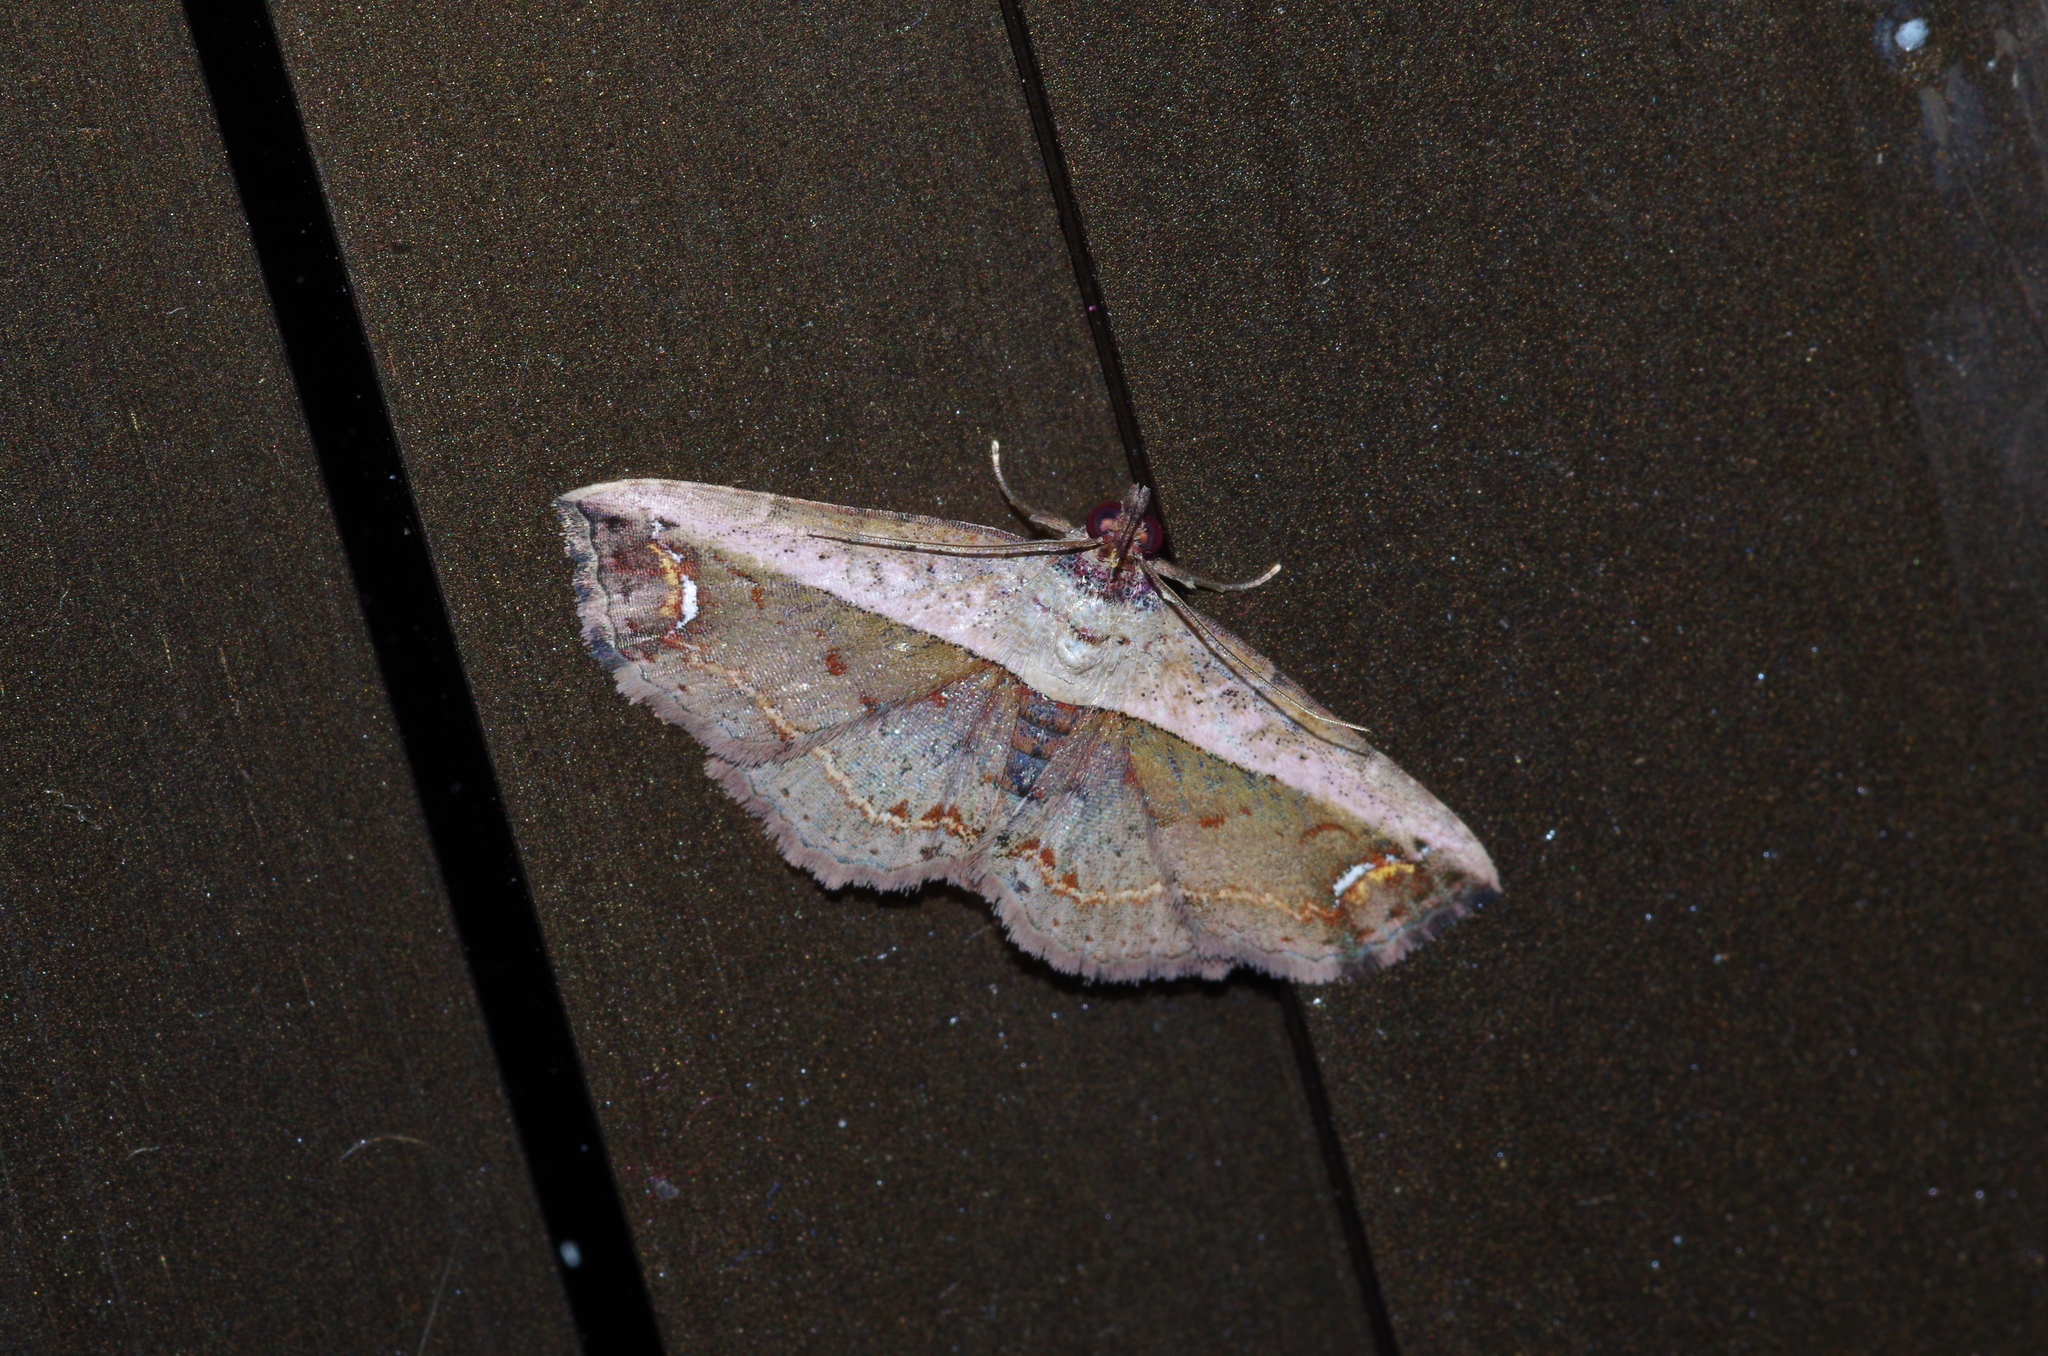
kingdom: Animalia
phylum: Arthropoda
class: Insecta
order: Lepidoptera
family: Noctuidae
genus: Eugnathia
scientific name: Eugnathia lunifera
